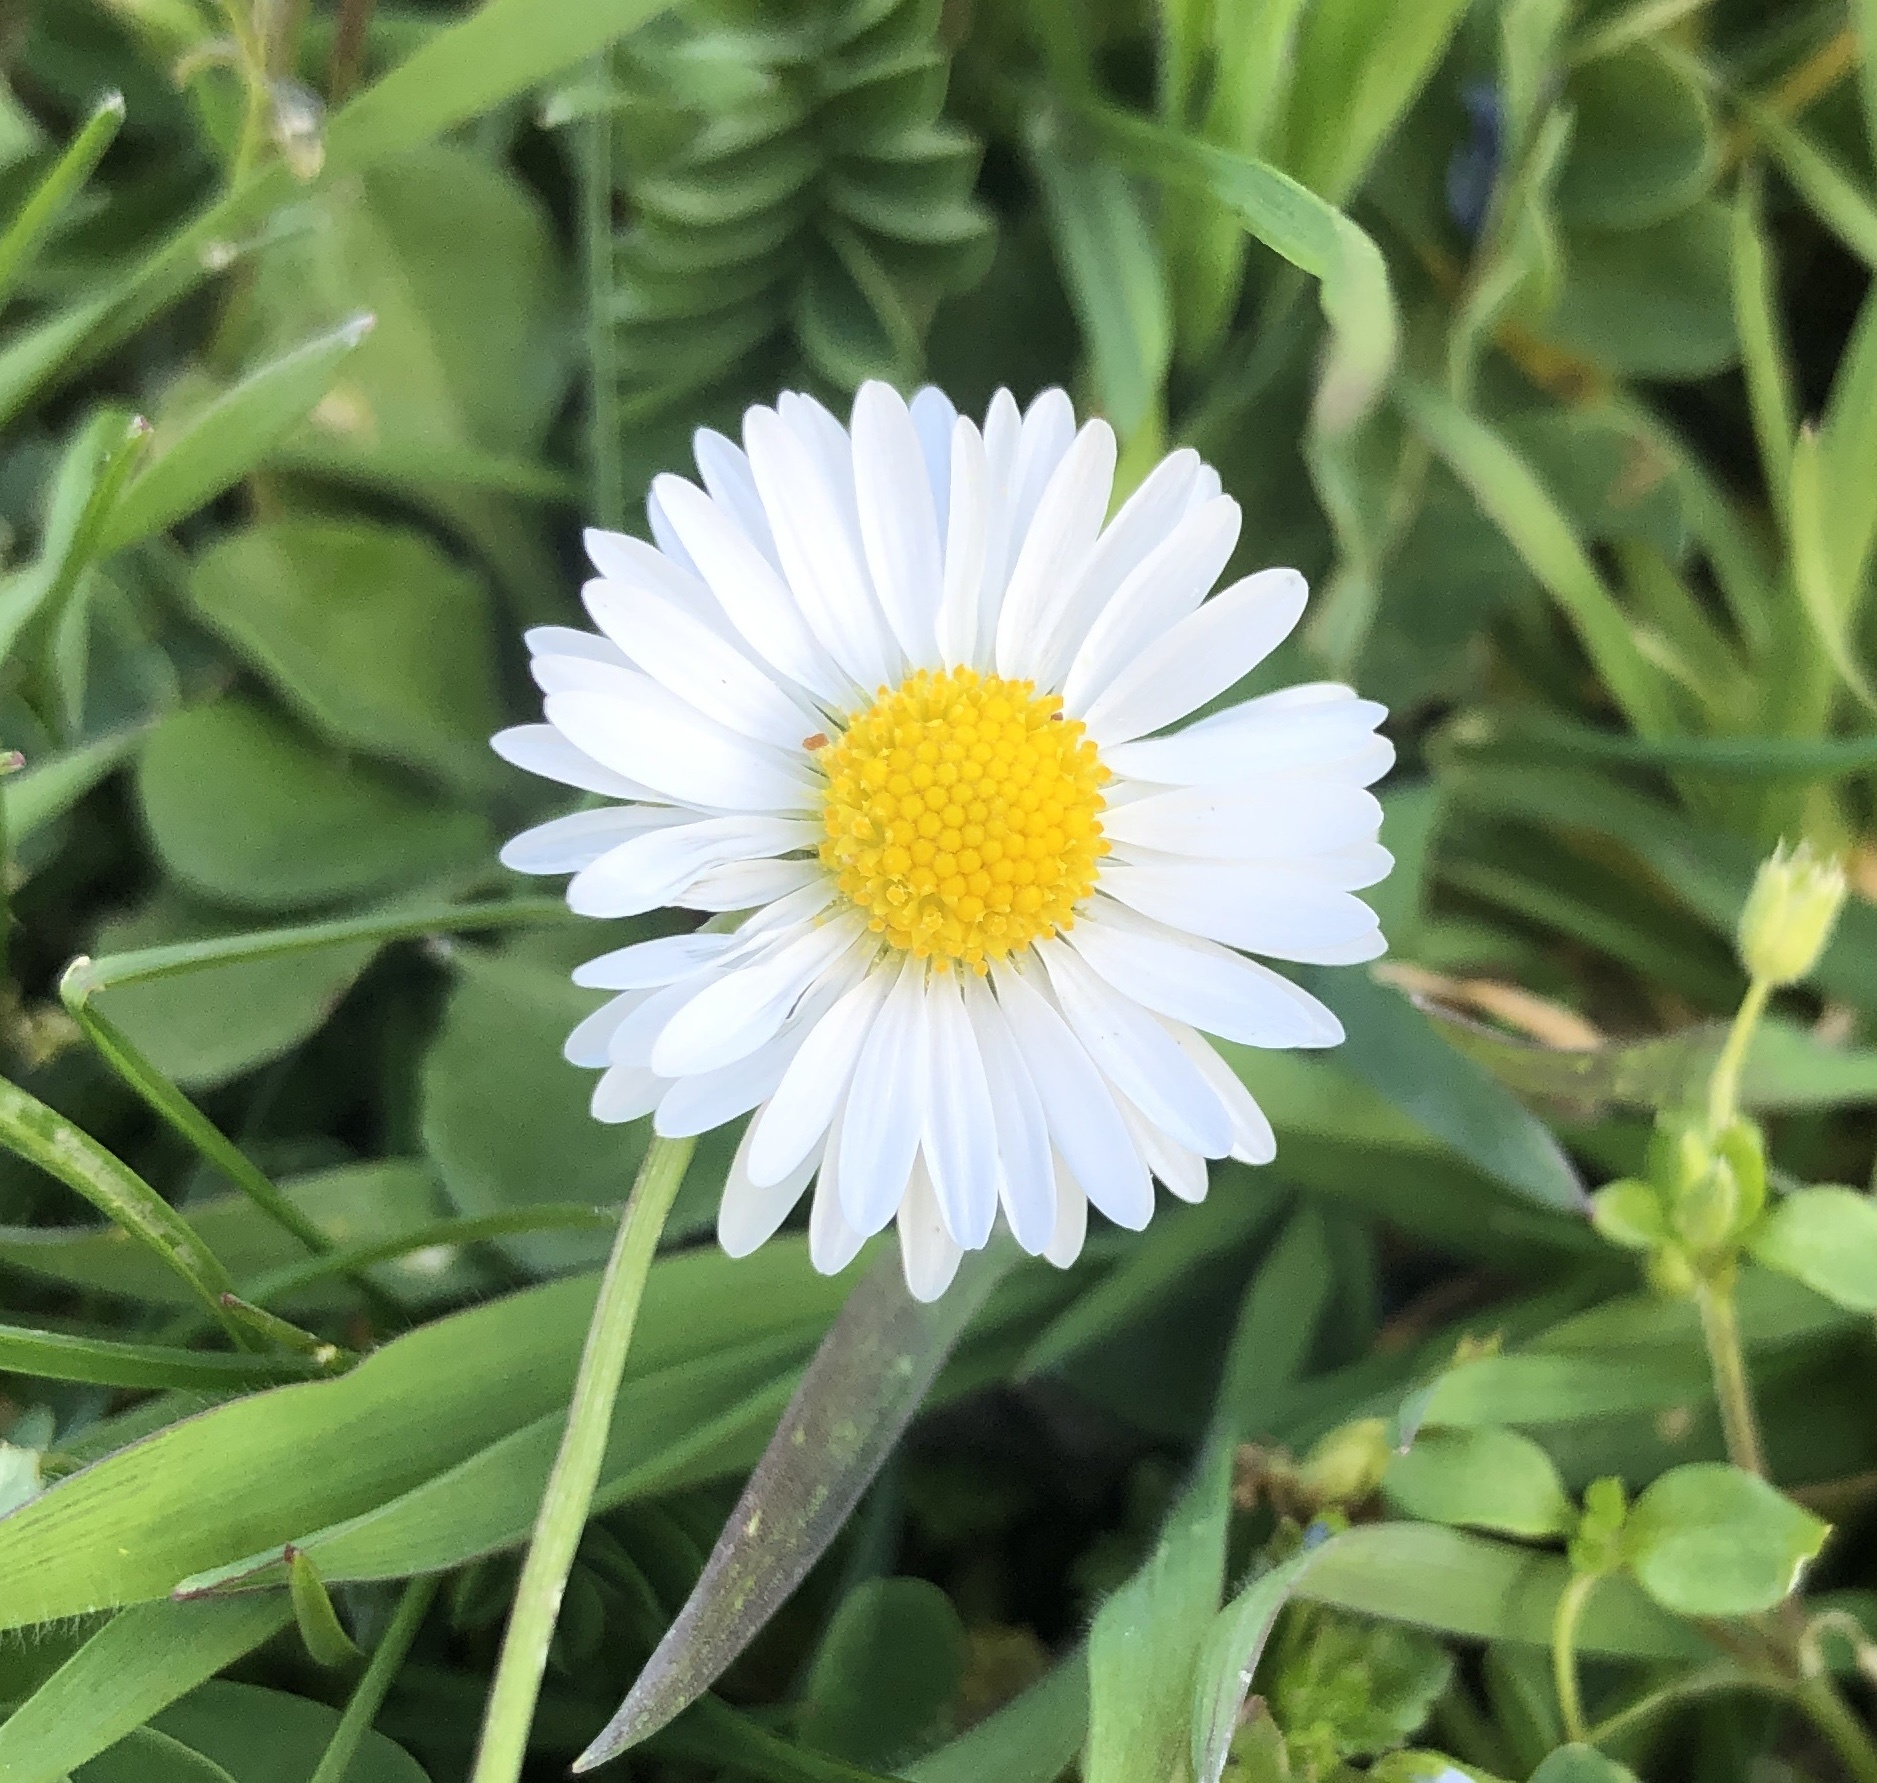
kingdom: Plantae
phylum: Tracheophyta
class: Magnoliopsida
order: Asterales
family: Asteraceae
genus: Bellis
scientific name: Bellis perennis
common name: Lawndaisy
